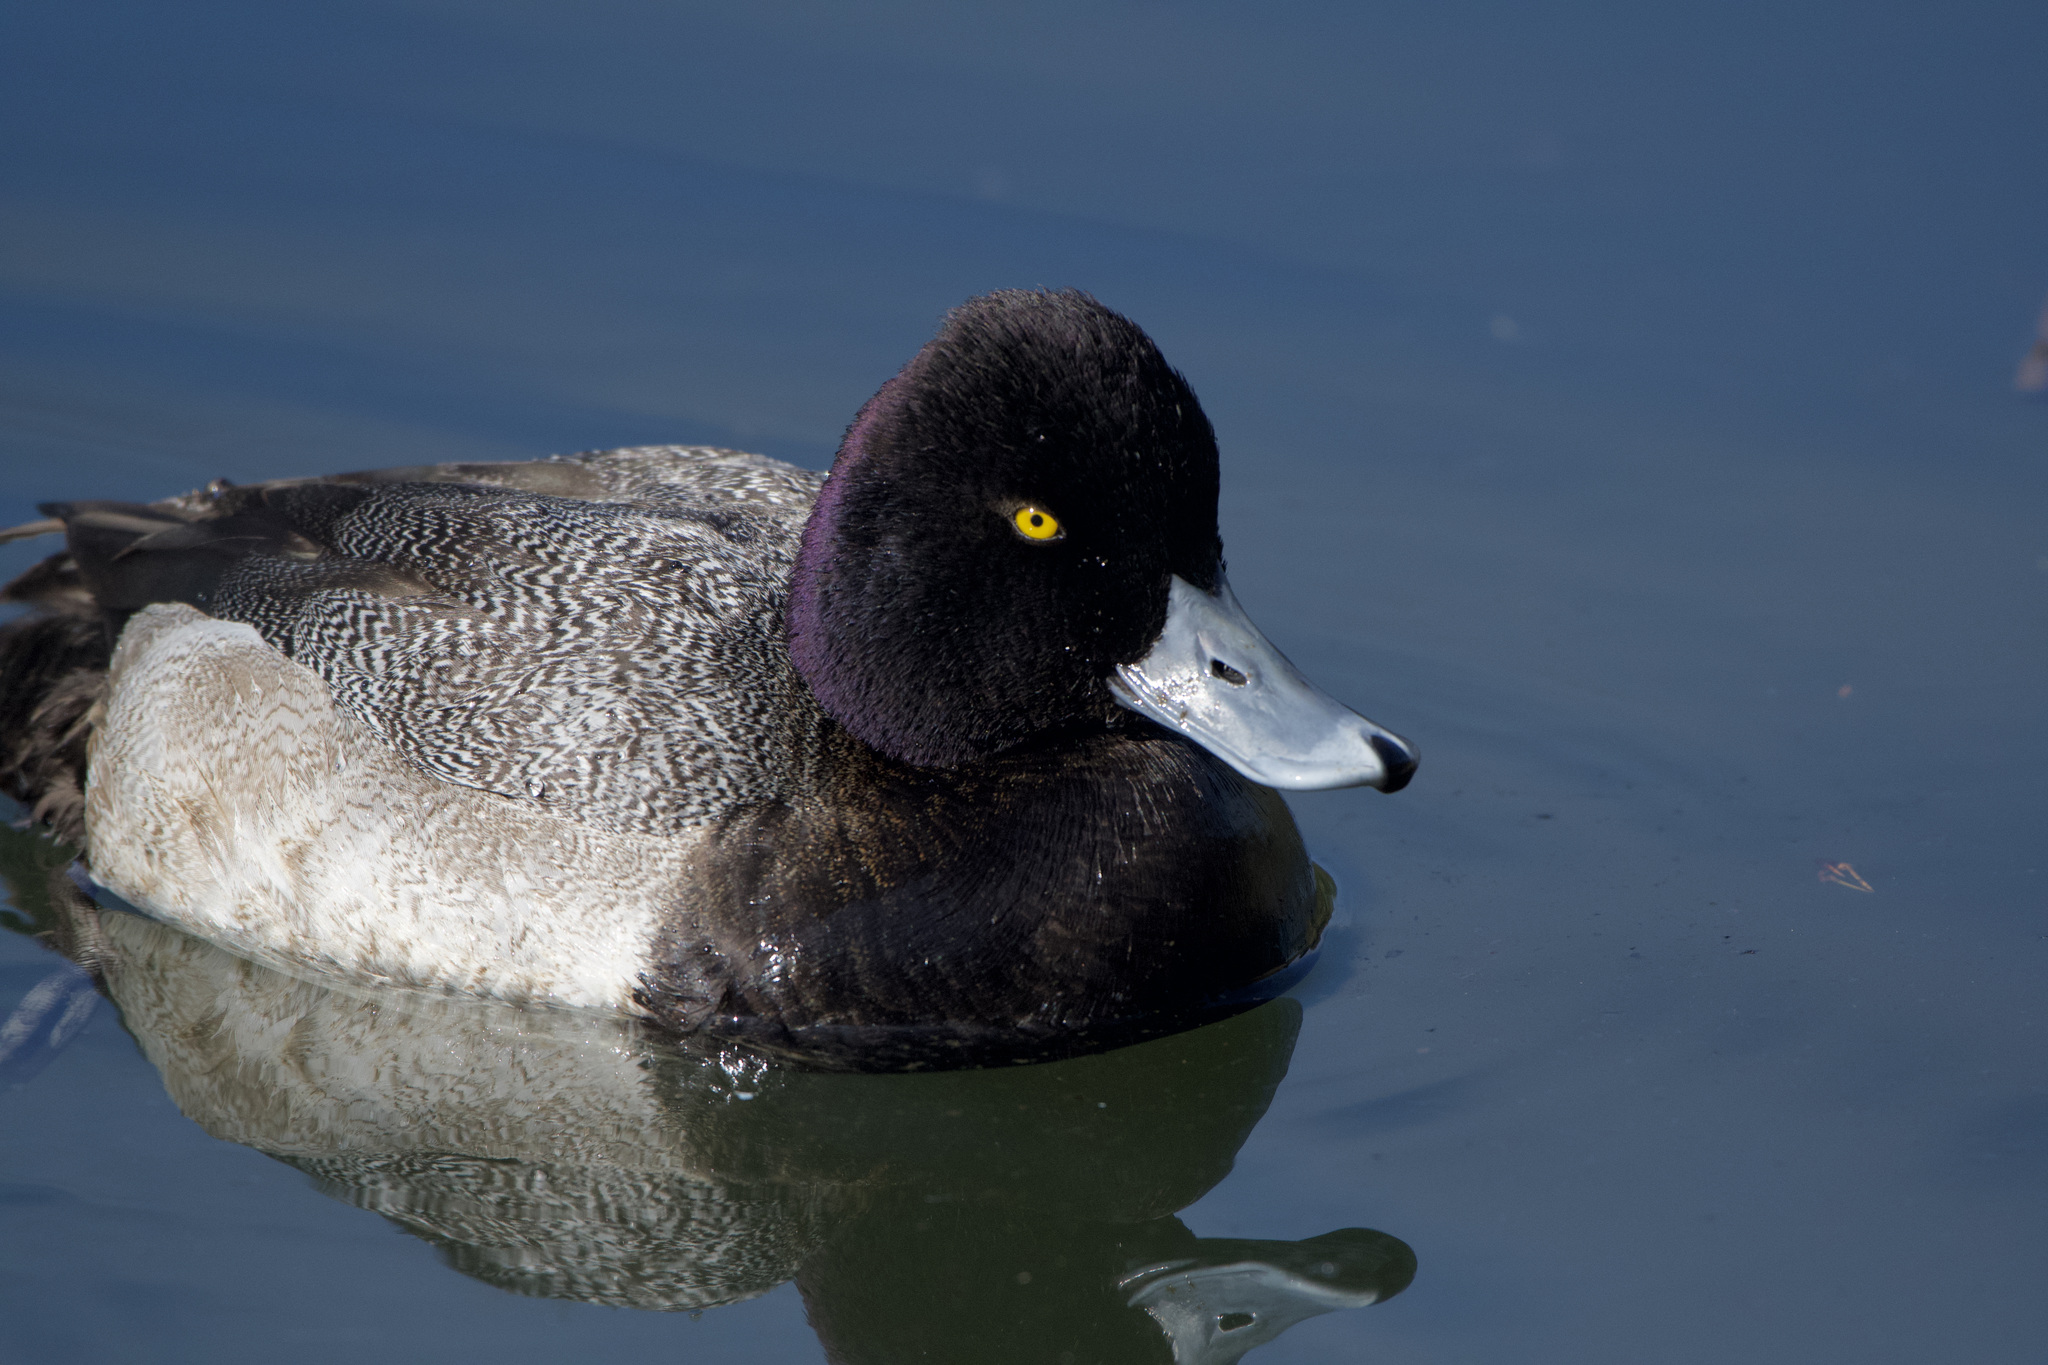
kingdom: Animalia
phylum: Chordata
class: Aves
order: Anseriformes
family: Anatidae
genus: Aythya
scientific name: Aythya affinis
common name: Lesser scaup
